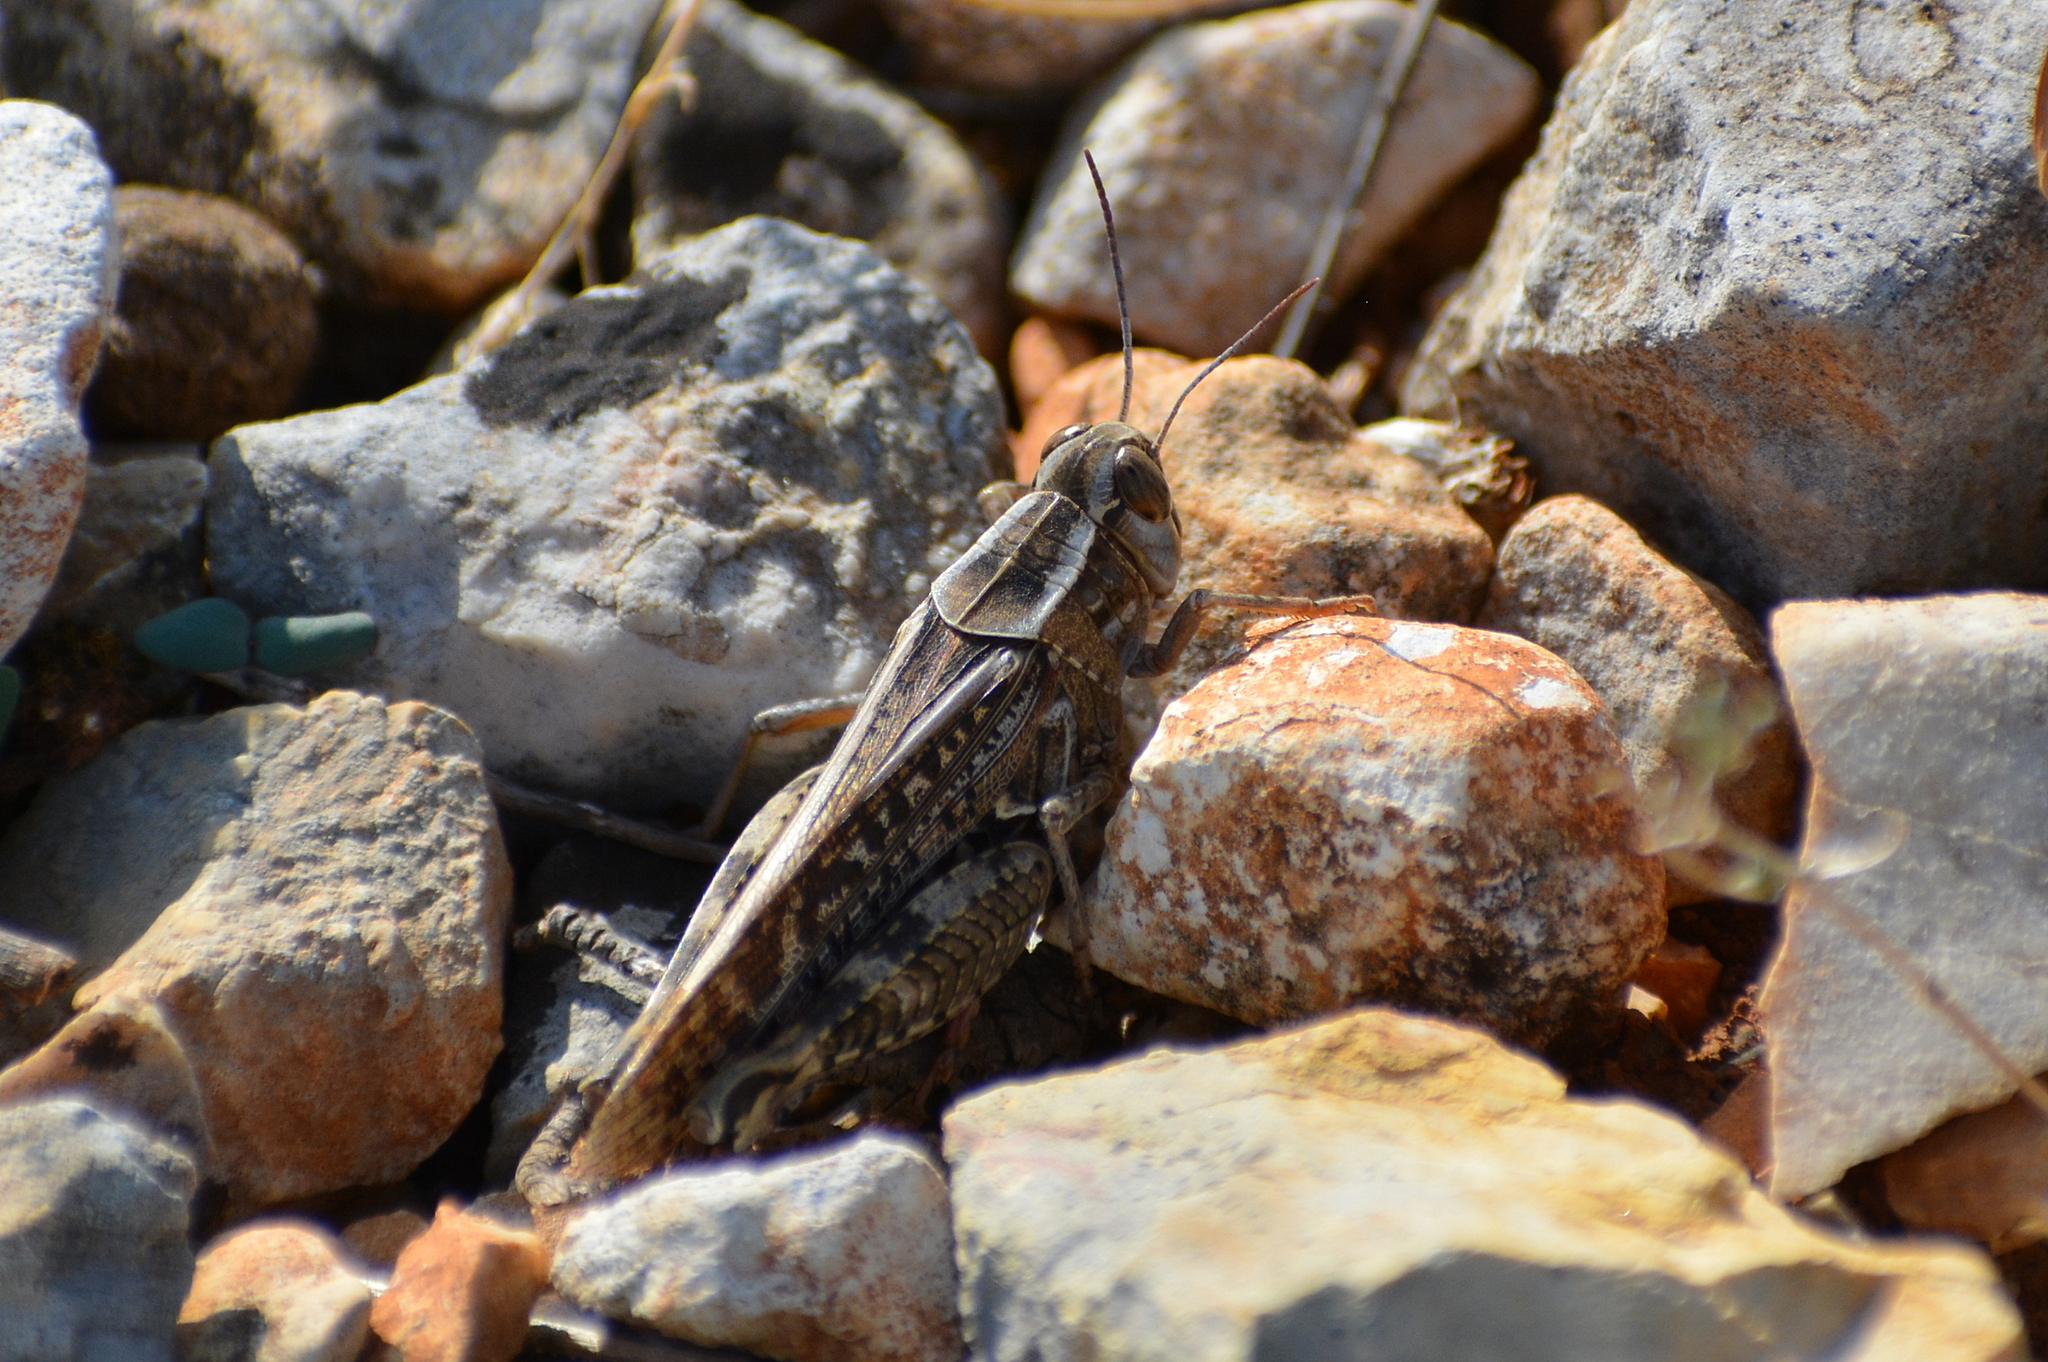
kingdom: Animalia
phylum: Arthropoda
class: Insecta
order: Orthoptera
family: Acrididae
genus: Calliptamus
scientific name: Calliptamus italicus
